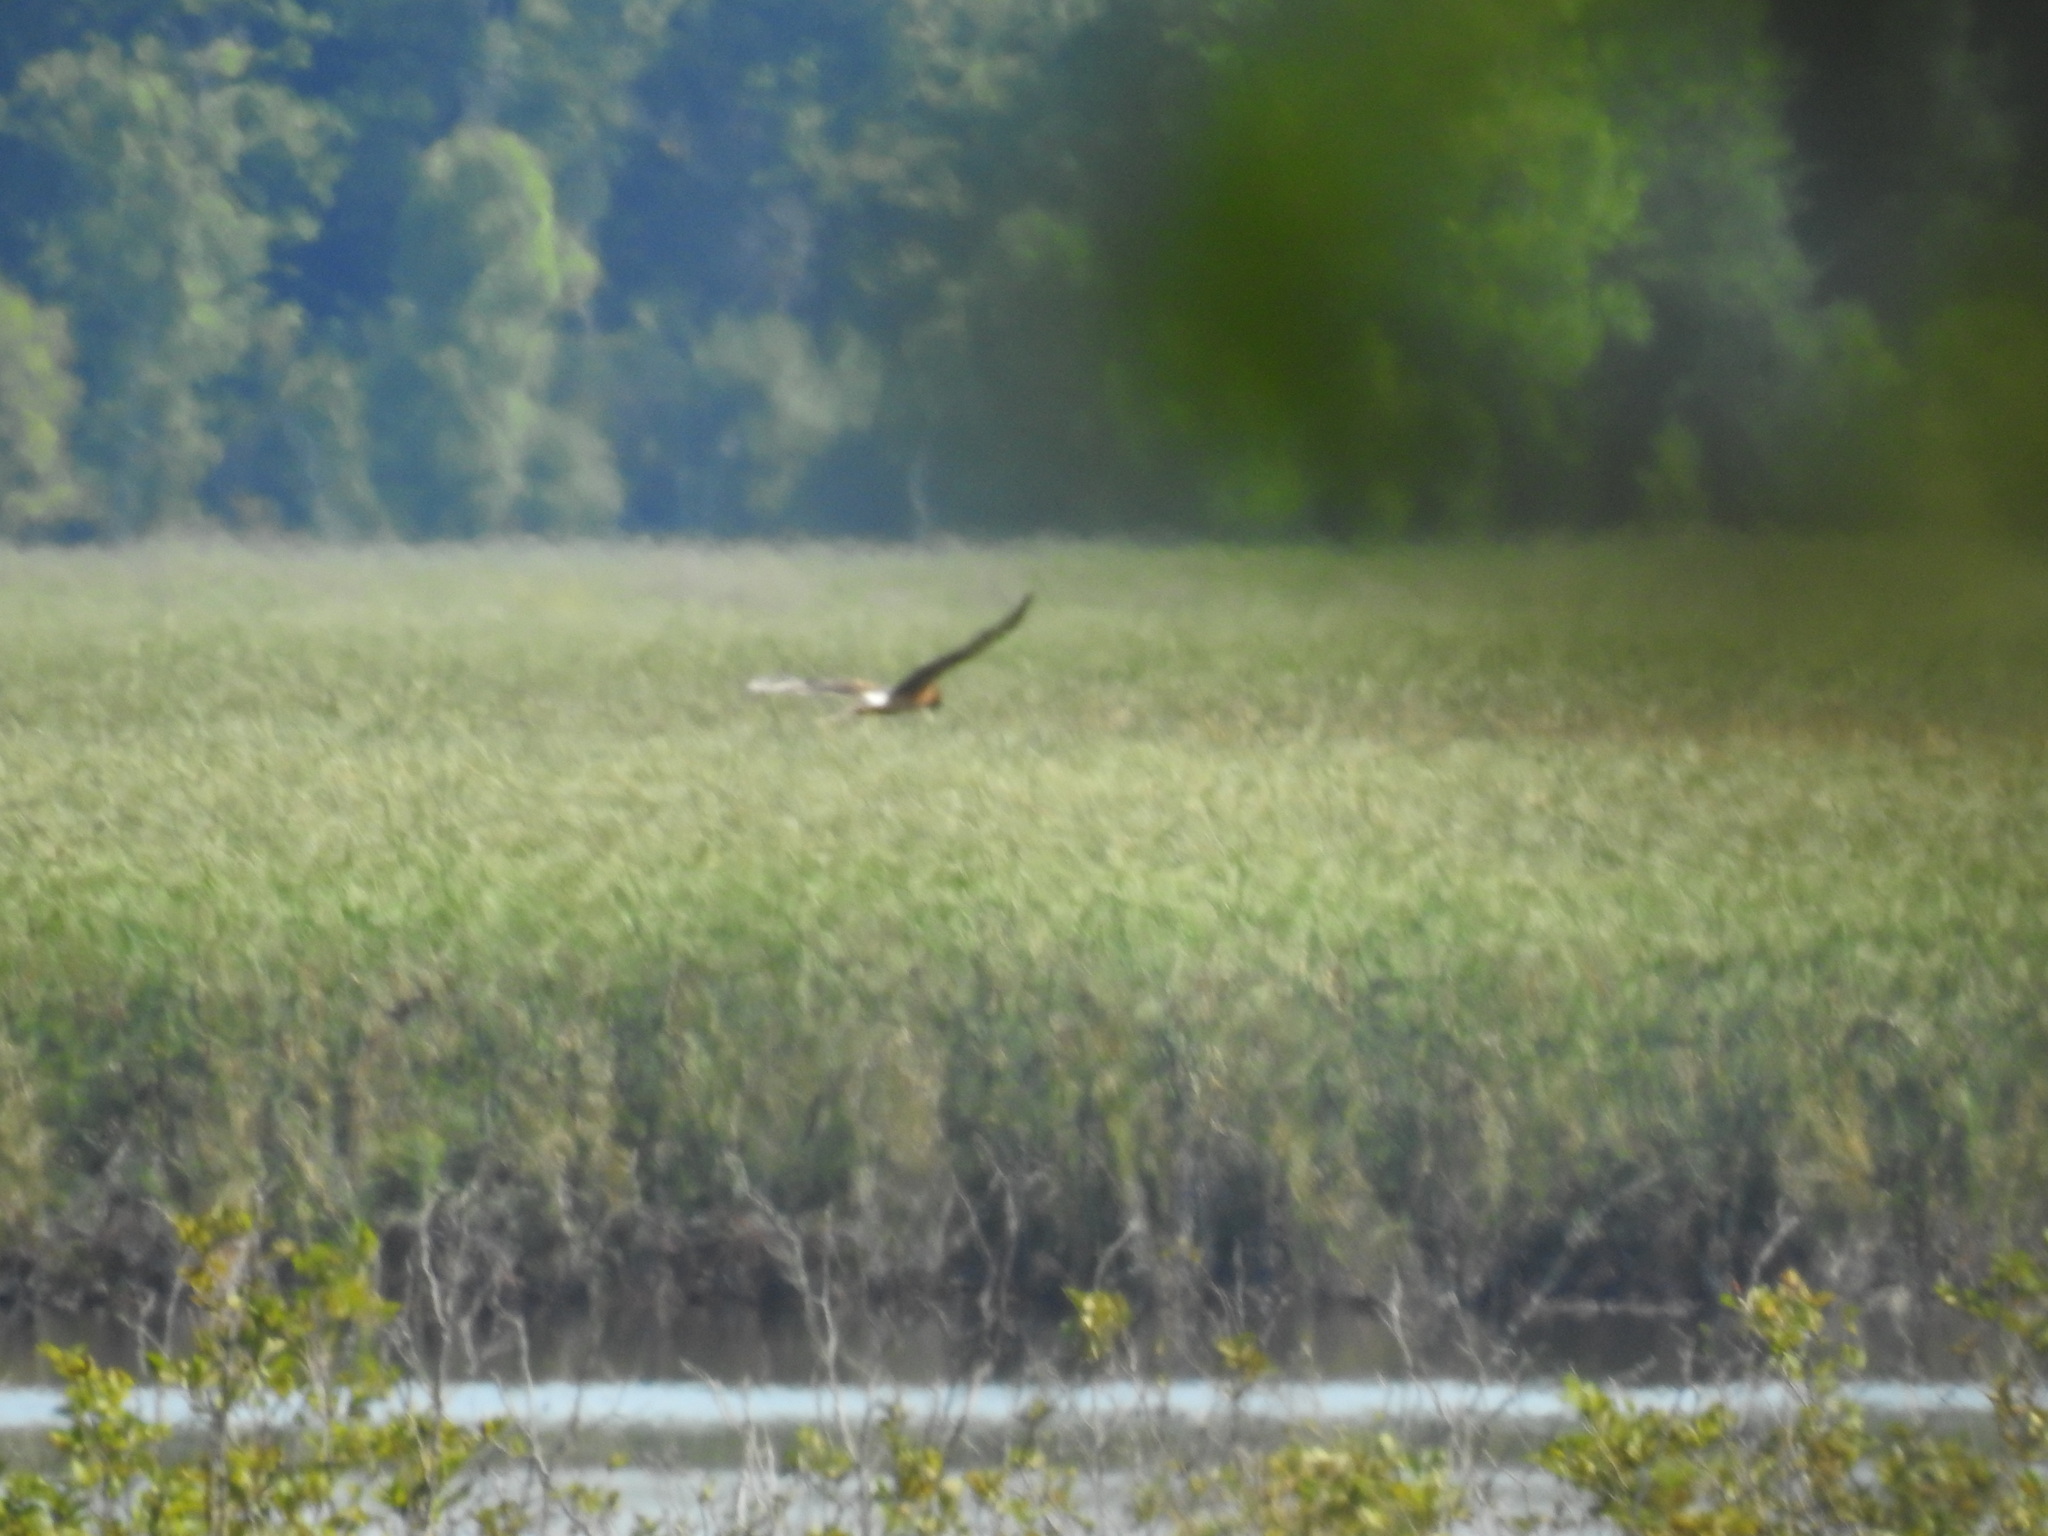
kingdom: Animalia
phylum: Chordata
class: Aves
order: Accipitriformes
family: Accipitridae
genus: Circus
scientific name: Circus cyaneus
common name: Hen harrier
